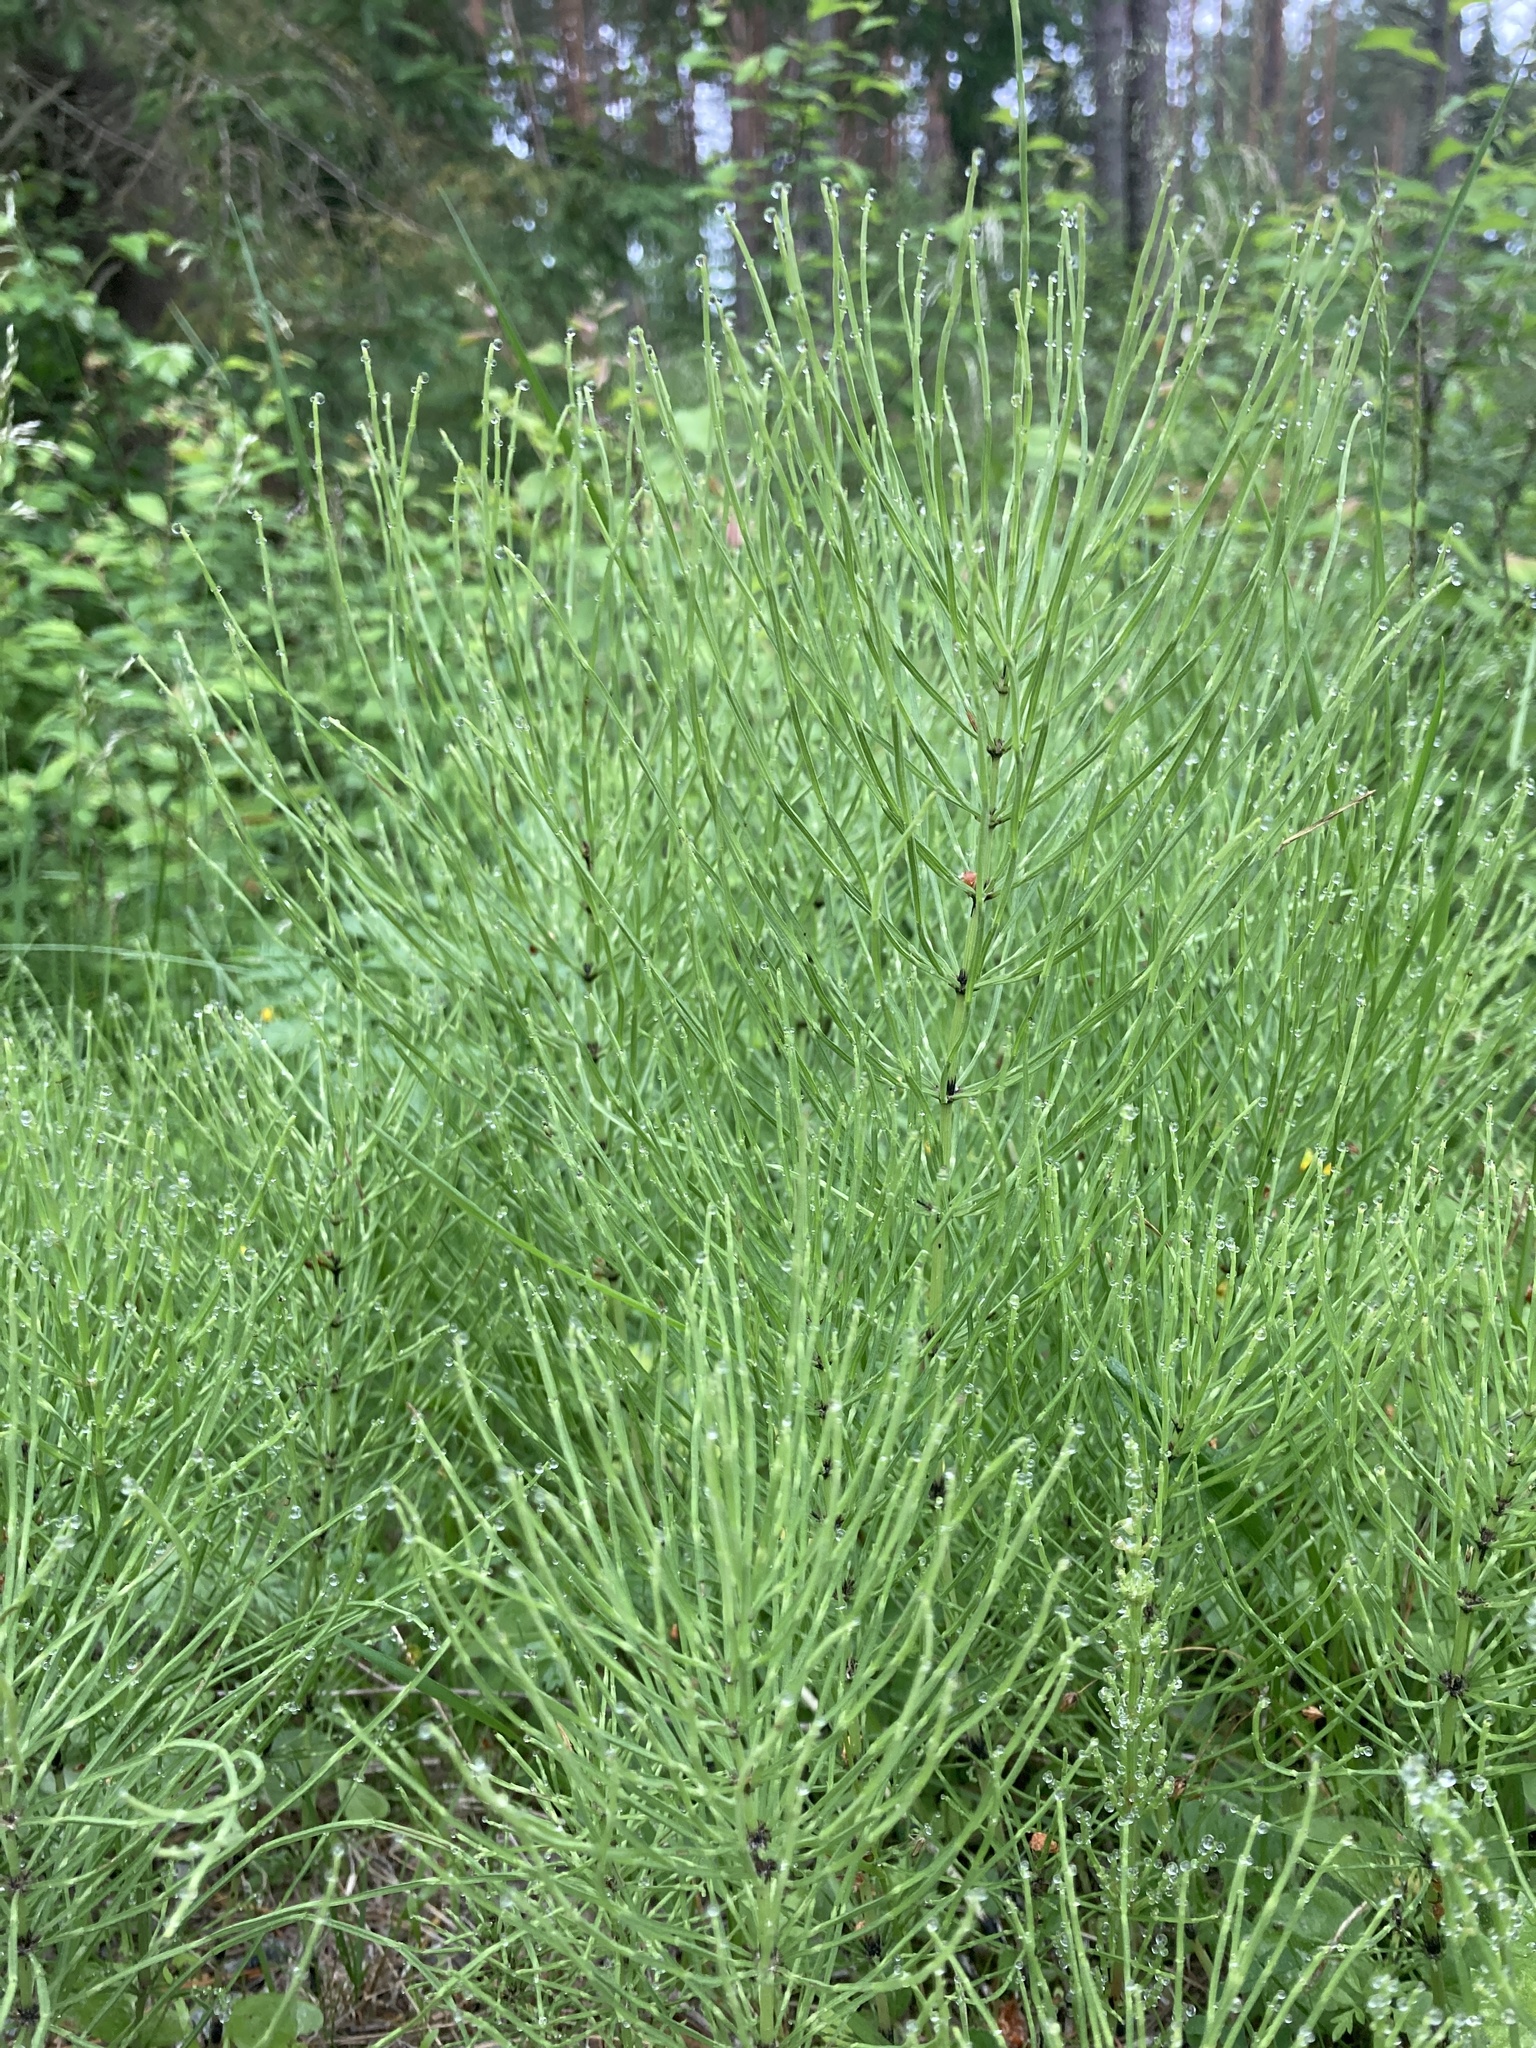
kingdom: Plantae
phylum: Tracheophyta
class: Polypodiopsida
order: Equisetales
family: Equisetaceae
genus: Equisetum
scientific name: Equisetum arvense
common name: Field horsetail
